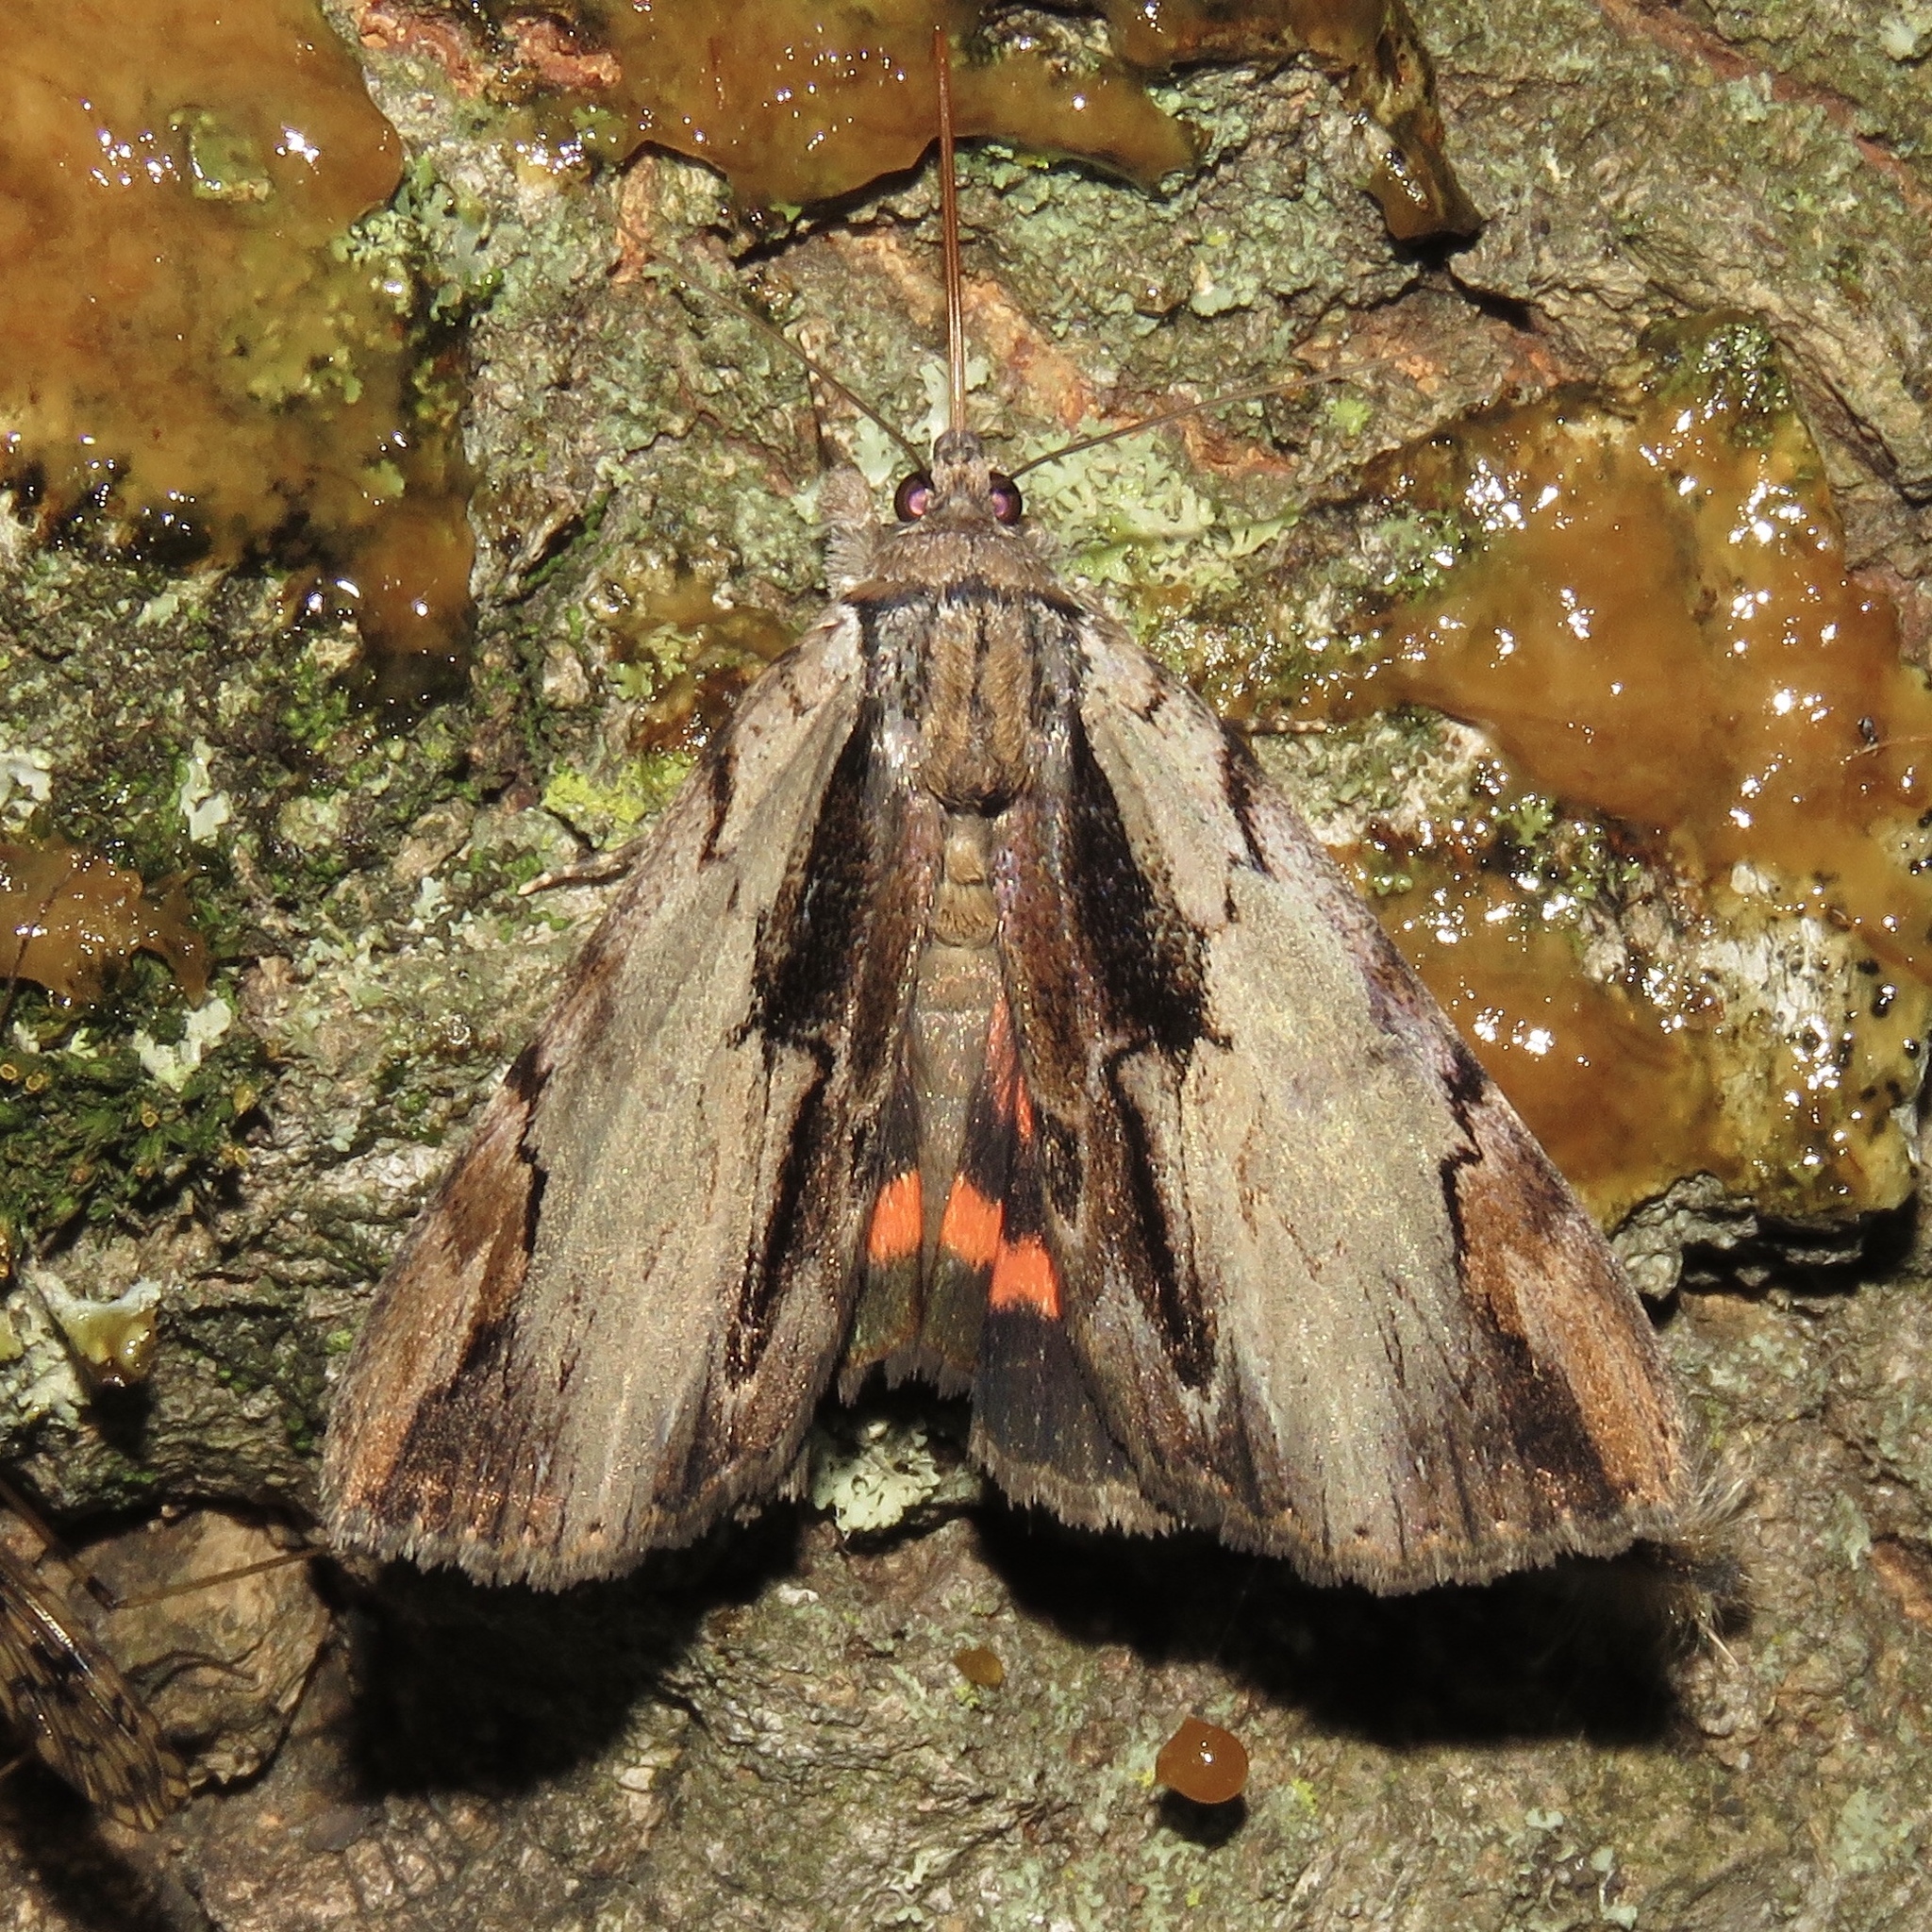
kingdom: Animalia
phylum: Arthropoda
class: Insecta
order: Lepidoptera
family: Erebidae
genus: Catocala
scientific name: Catocala ultronia
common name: Ultronia underwing
